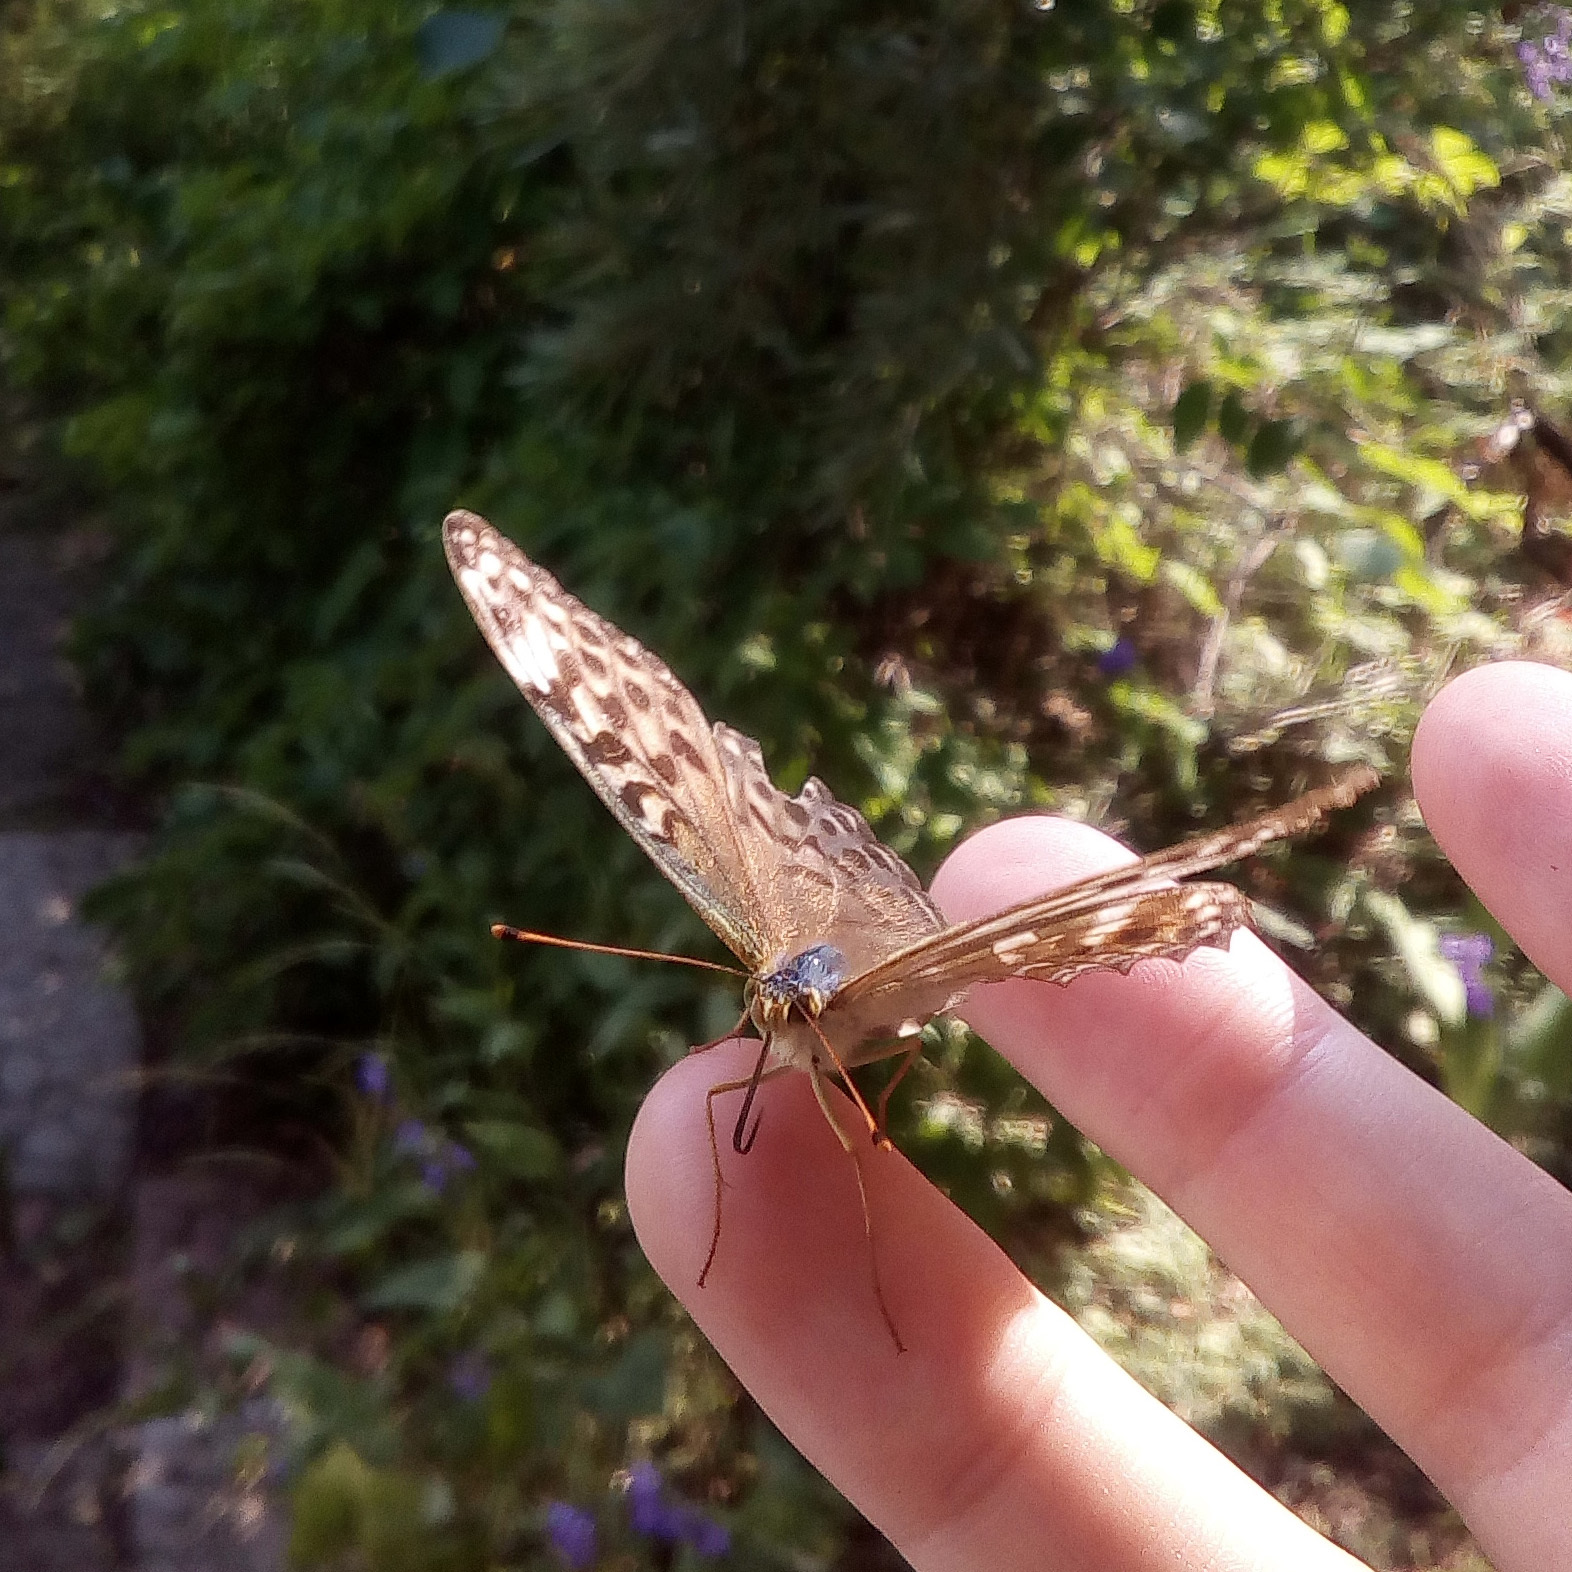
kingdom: Animalia
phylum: Arthropoda
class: Insecta
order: Lepidoptera
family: Nymphalidae
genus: Argynnis
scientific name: Argynnis paphia
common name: Silver-washed fritillary
